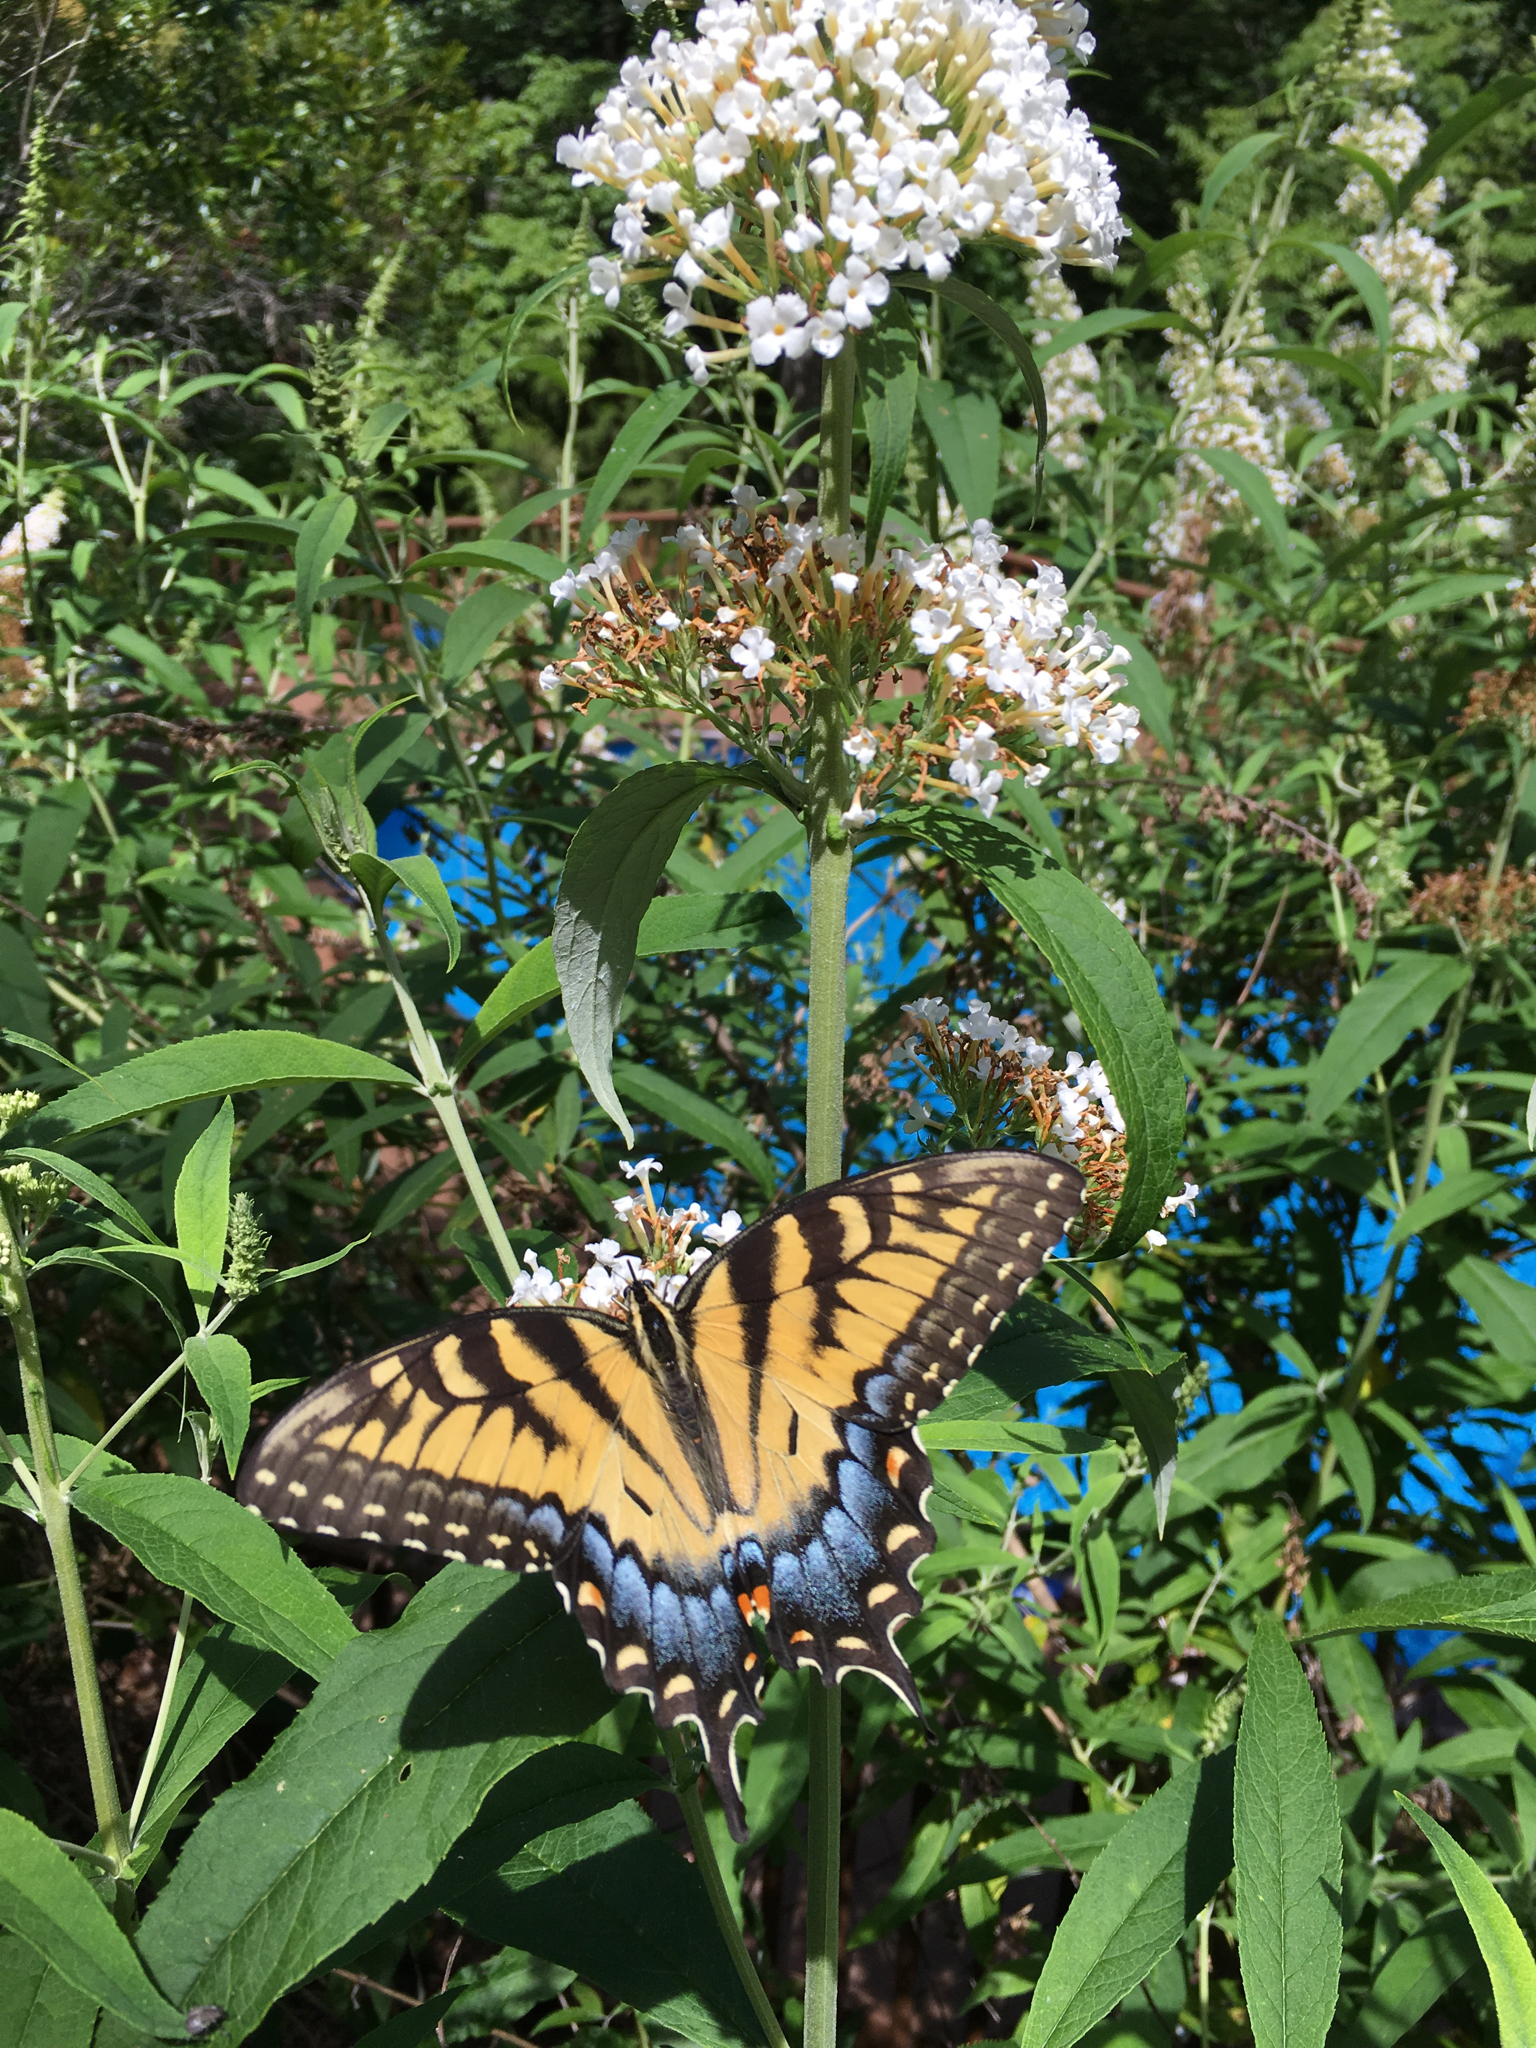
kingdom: Animalia
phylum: Arthropoda
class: Insecta
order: Lepidoptera
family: Papilionidae
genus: Papilio
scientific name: Papilio glaucus
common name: Tiger swallowtail
